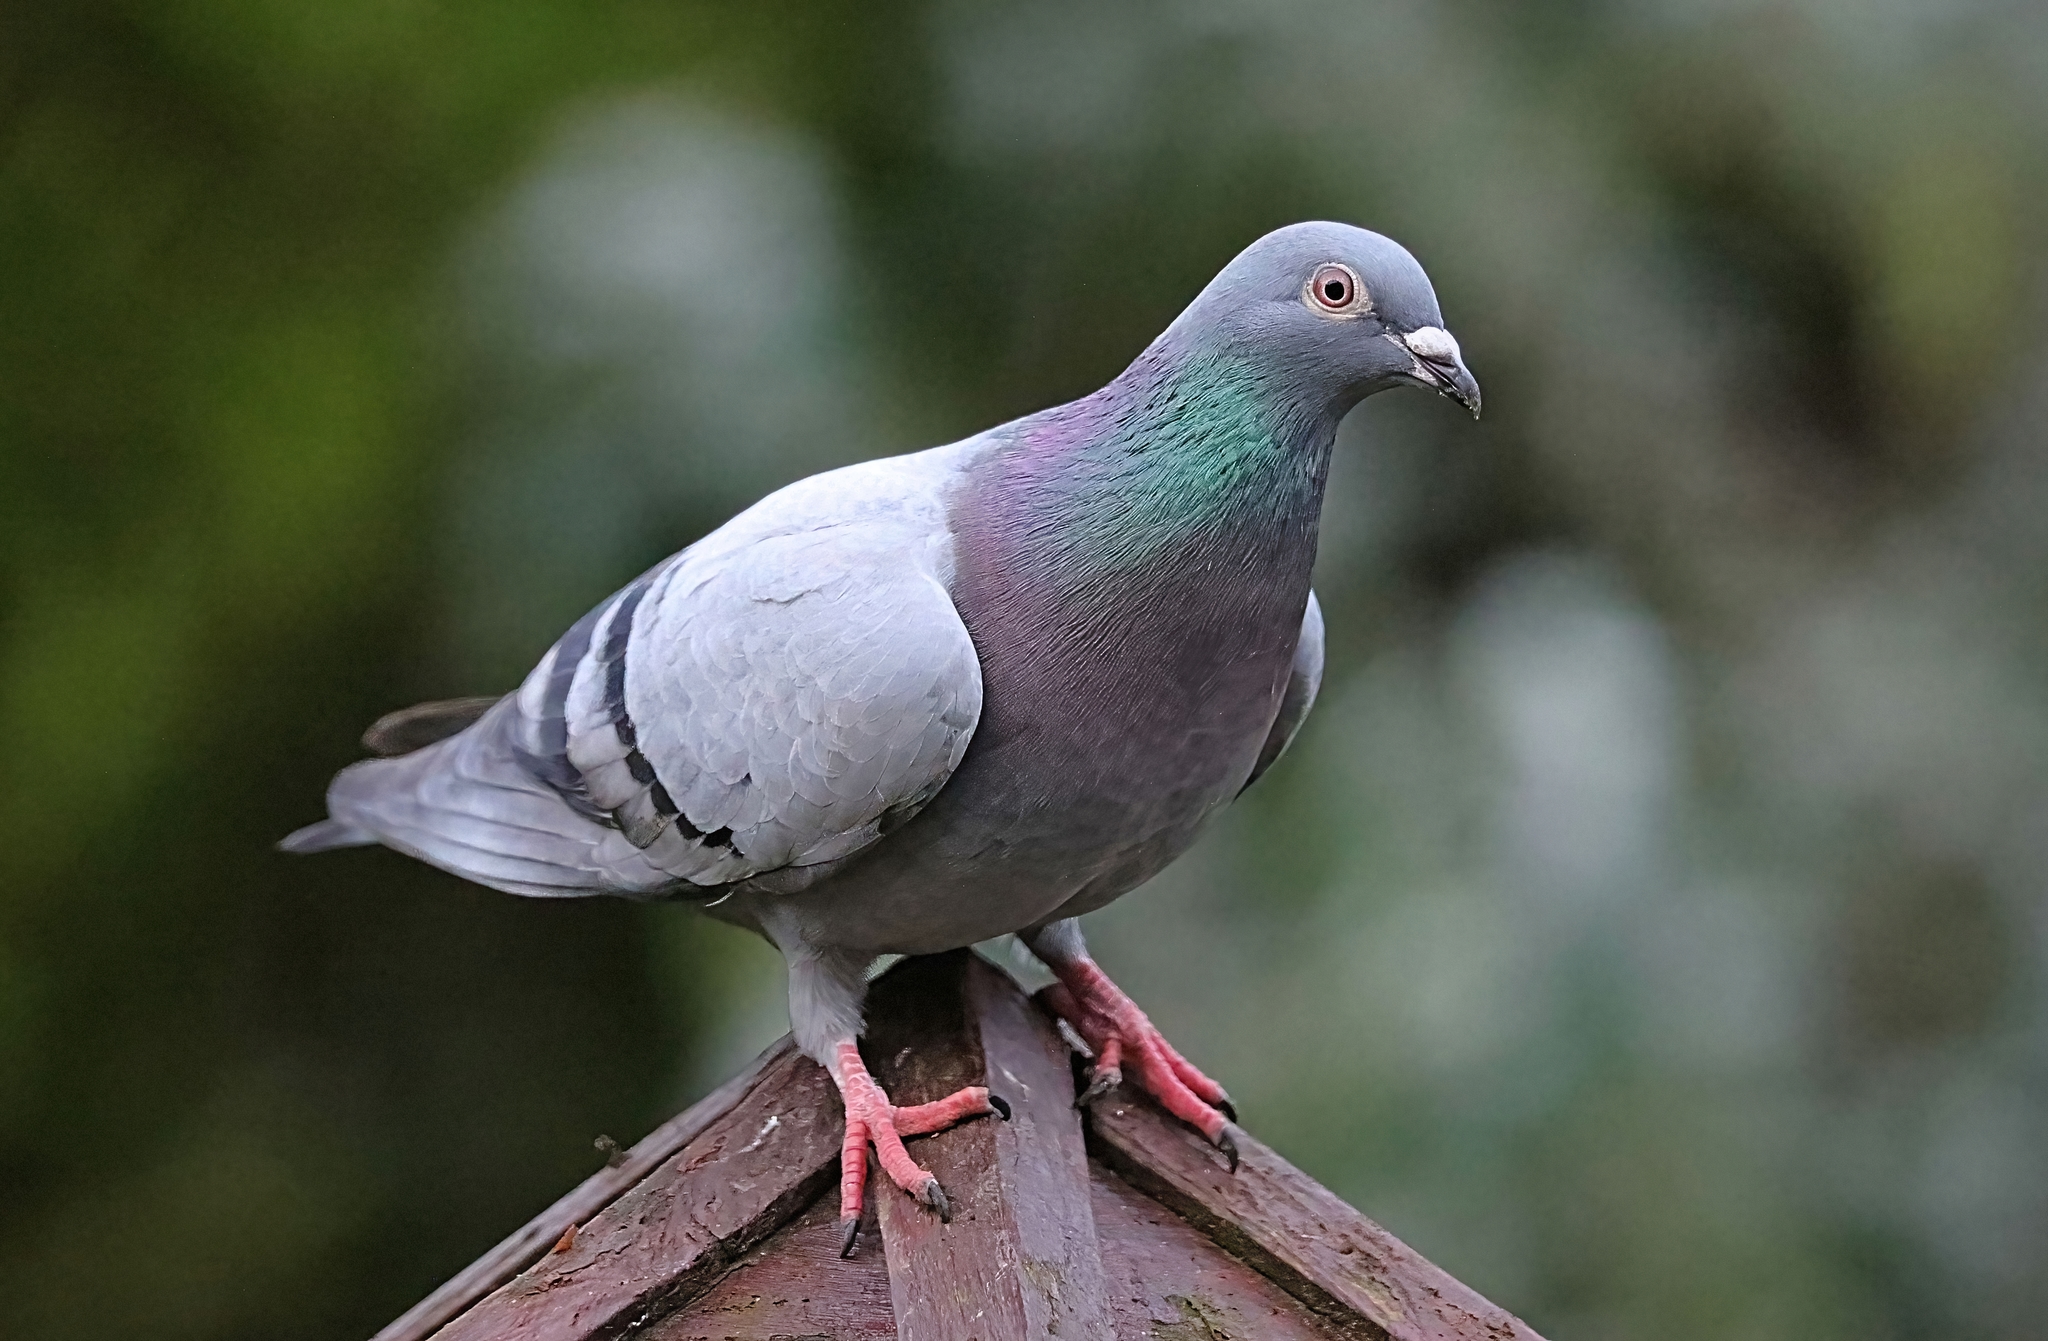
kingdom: Animalia
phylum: Chordata
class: Aves
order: Columbiformes
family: Columbidae
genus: Columba
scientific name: Columba livia
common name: Rock pigeon
